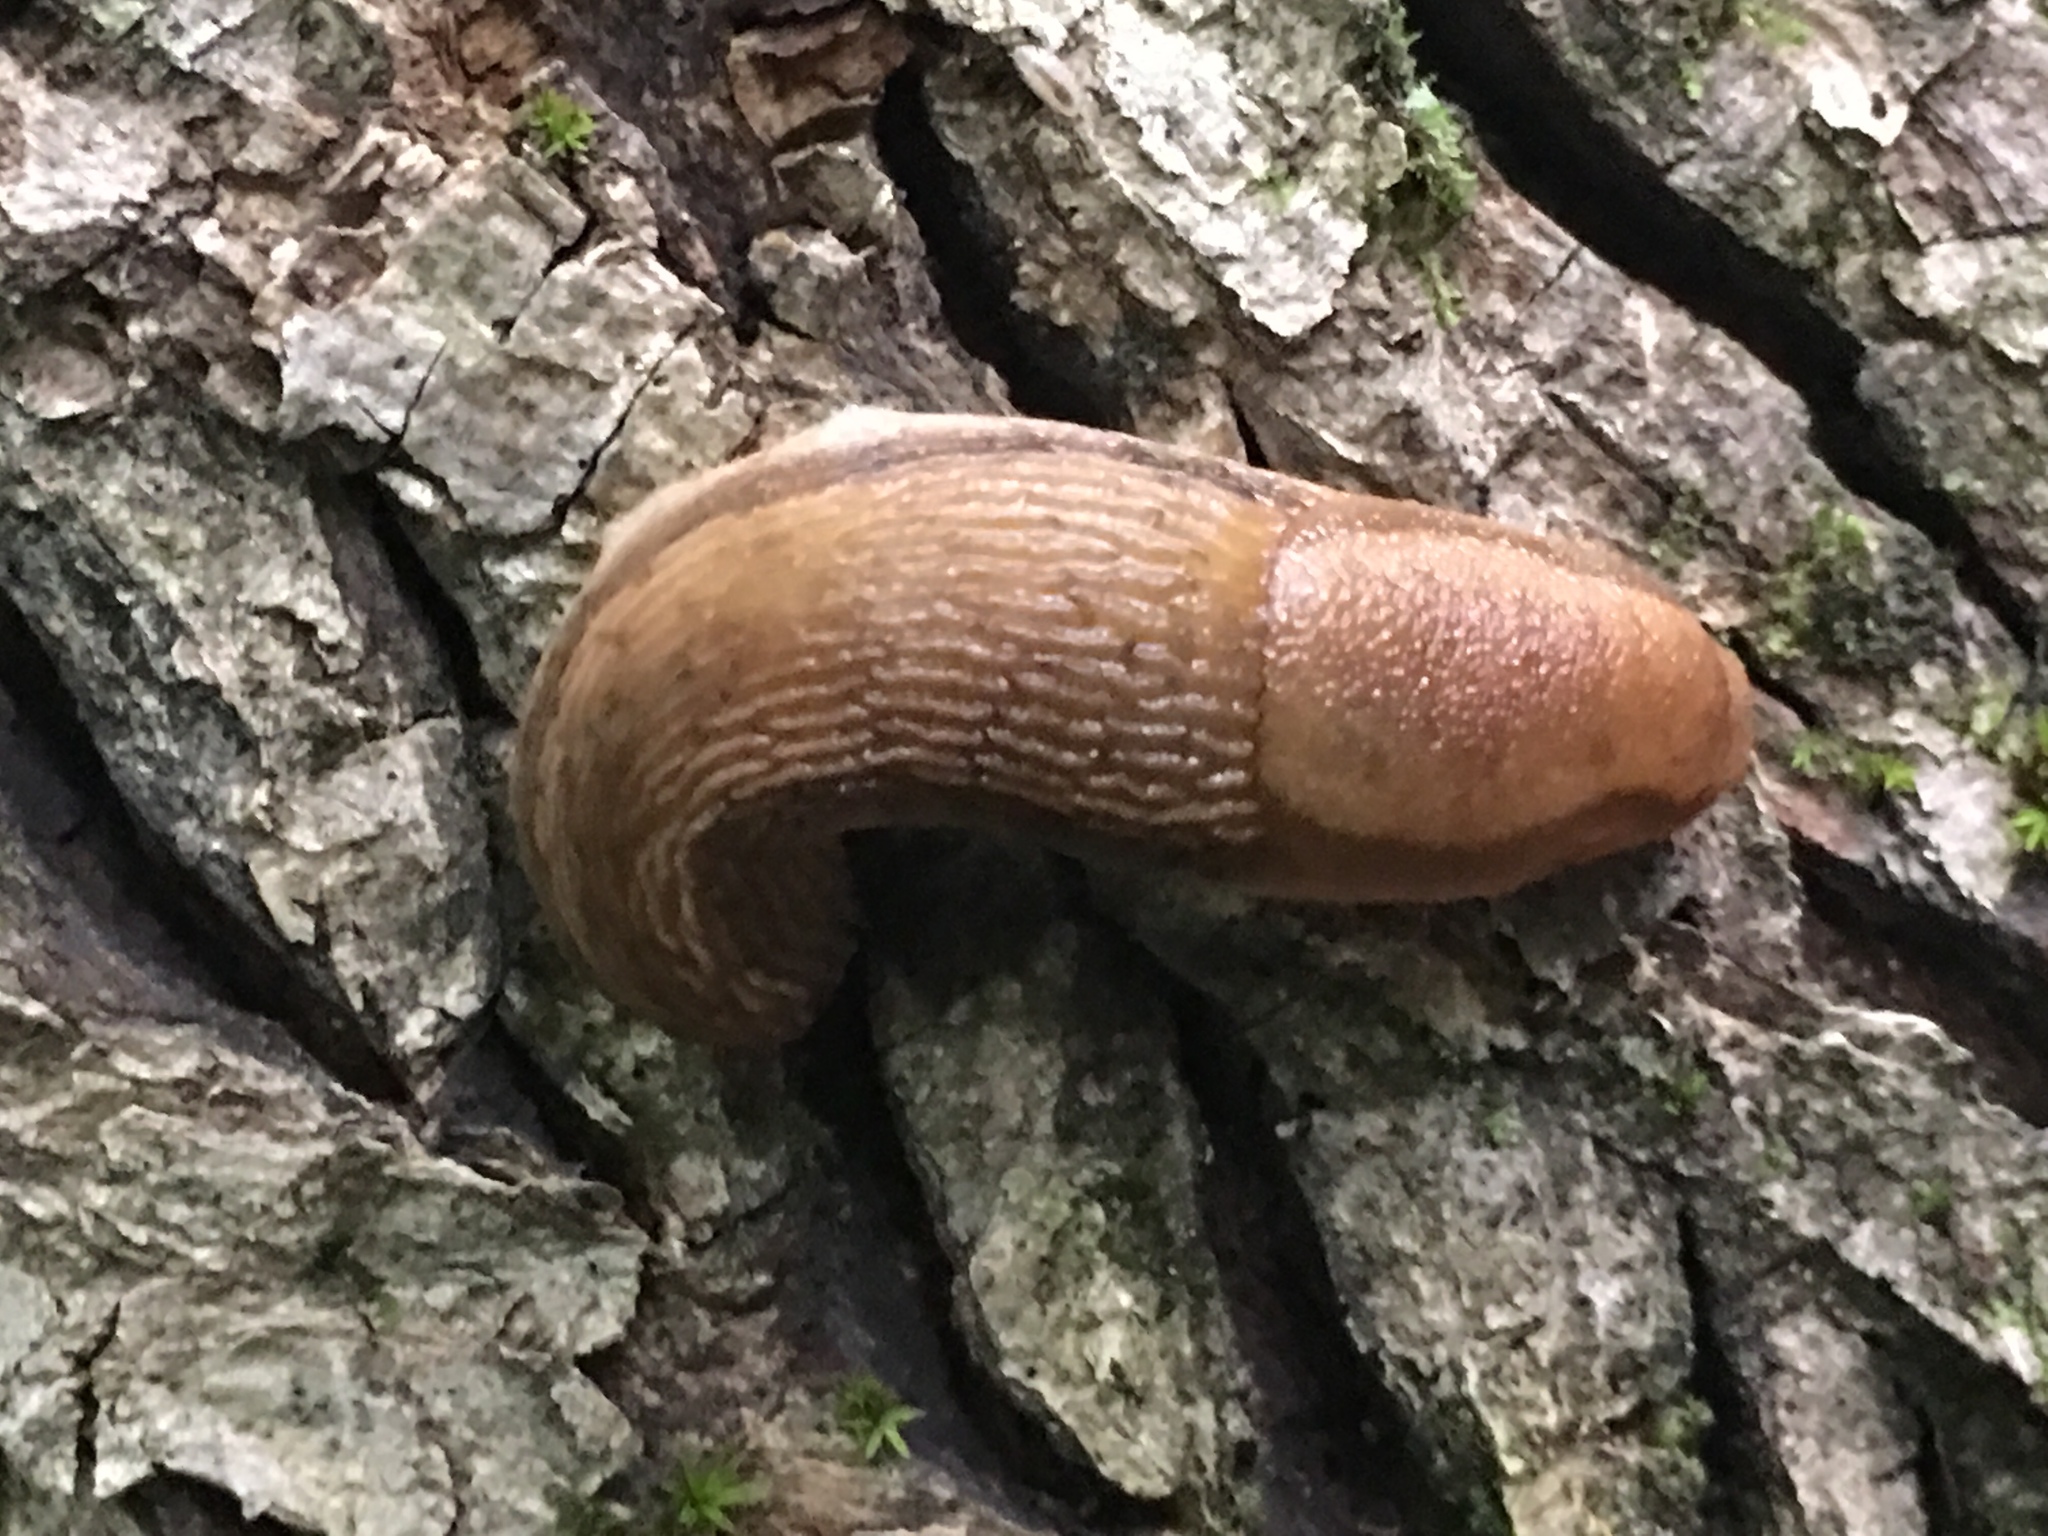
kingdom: Animalia
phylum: Mollusca
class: Gastropoda
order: Stylommatophora
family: Arionidae
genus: Arion
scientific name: Arion subfuscus
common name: Dusky arion
